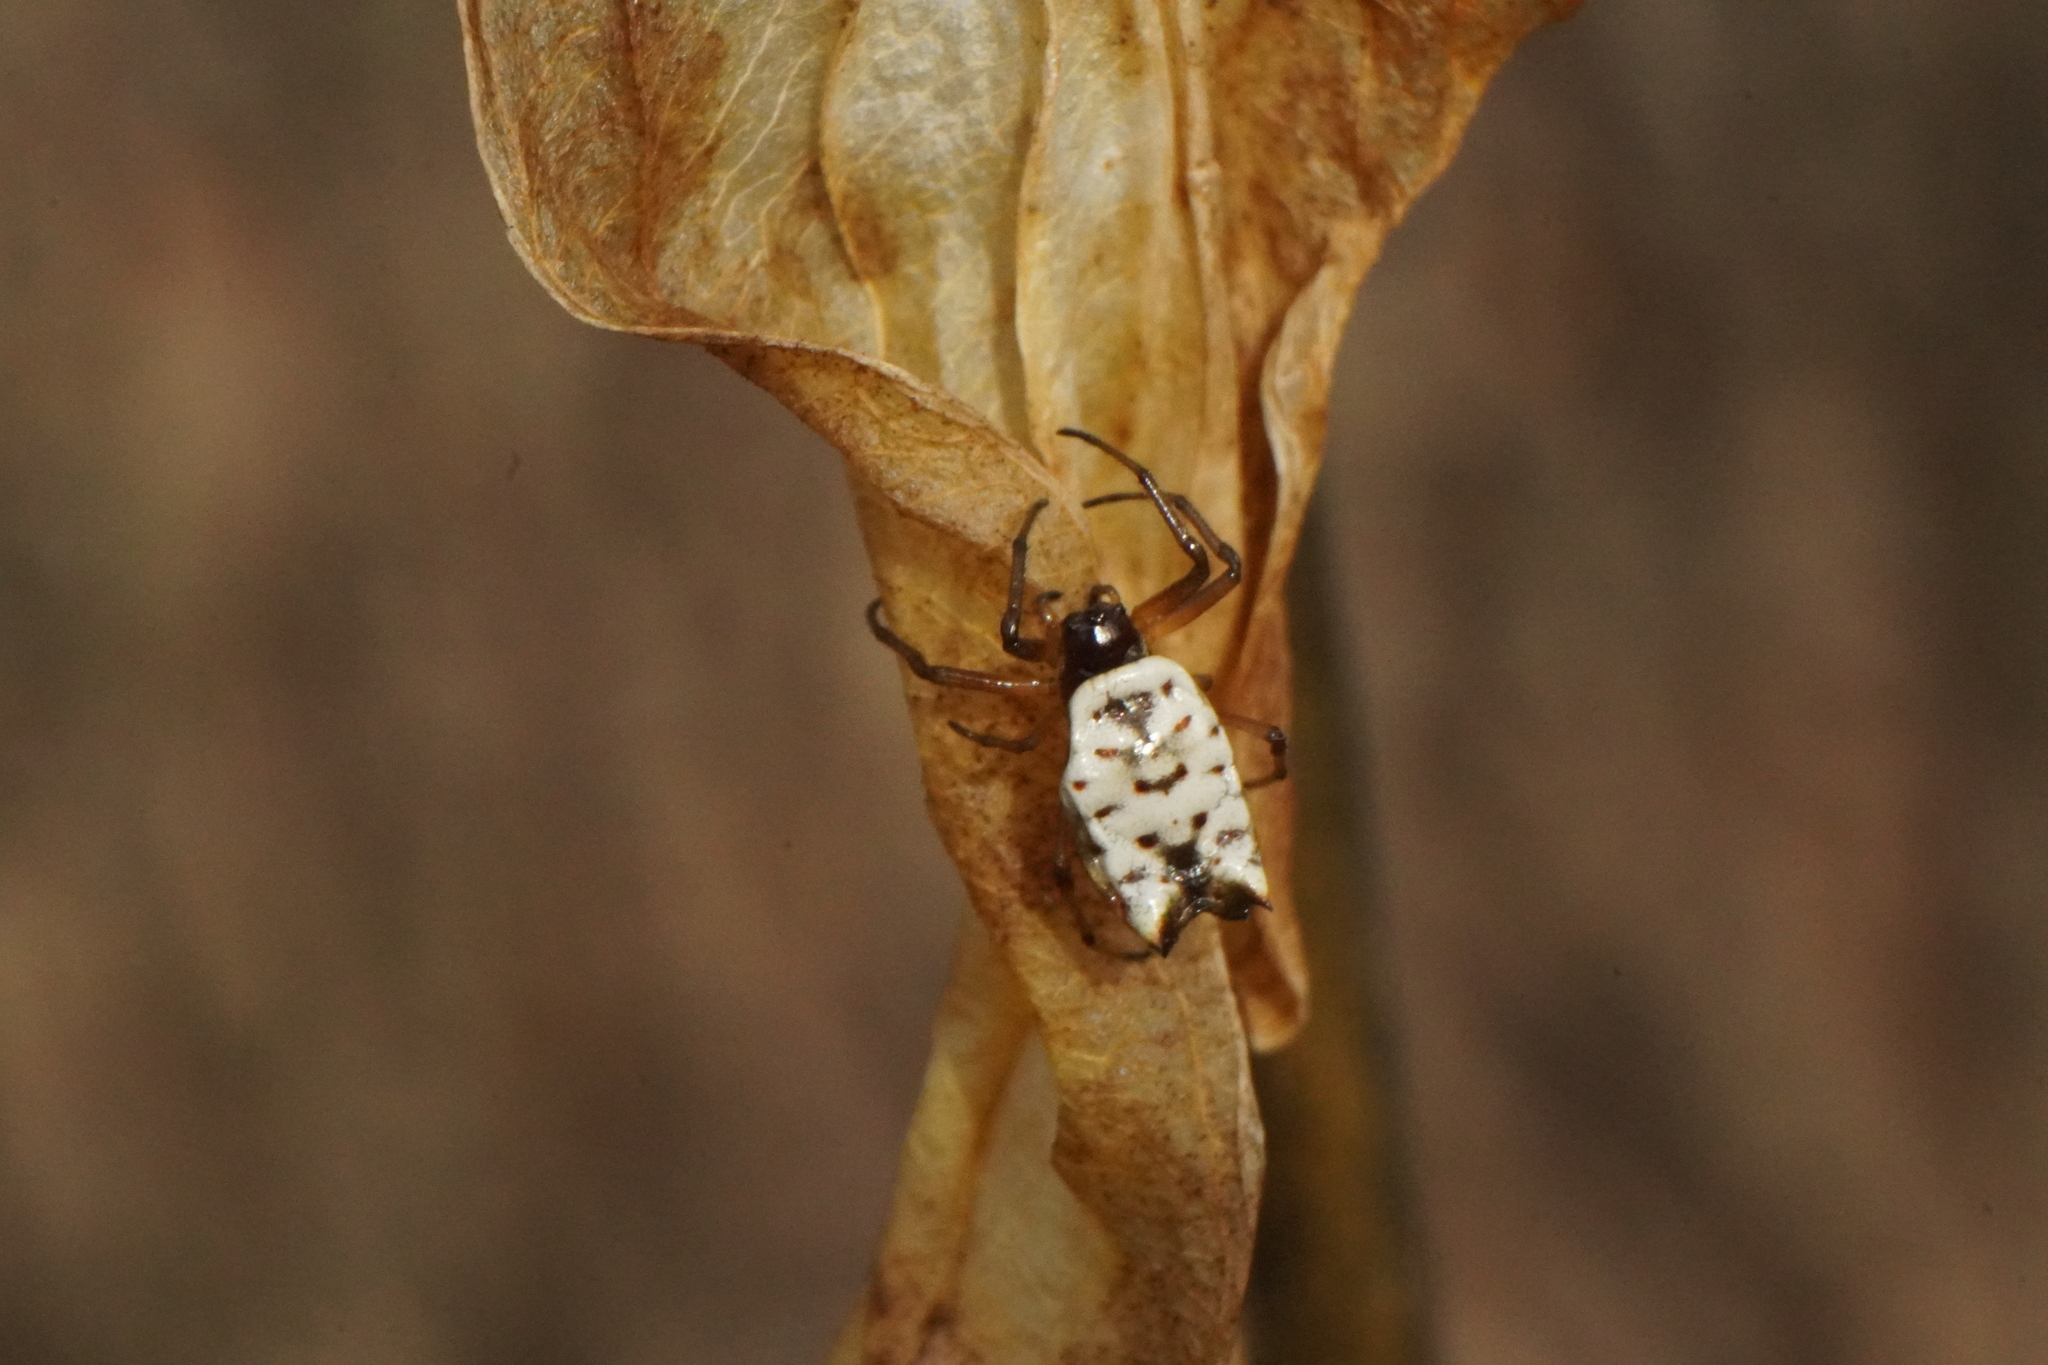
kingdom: Animalia
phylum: Arthropoda
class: Arachnida
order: Araneae
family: Araneidae
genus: Micrathena
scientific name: Micrathena mitrata
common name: Orb weavers
